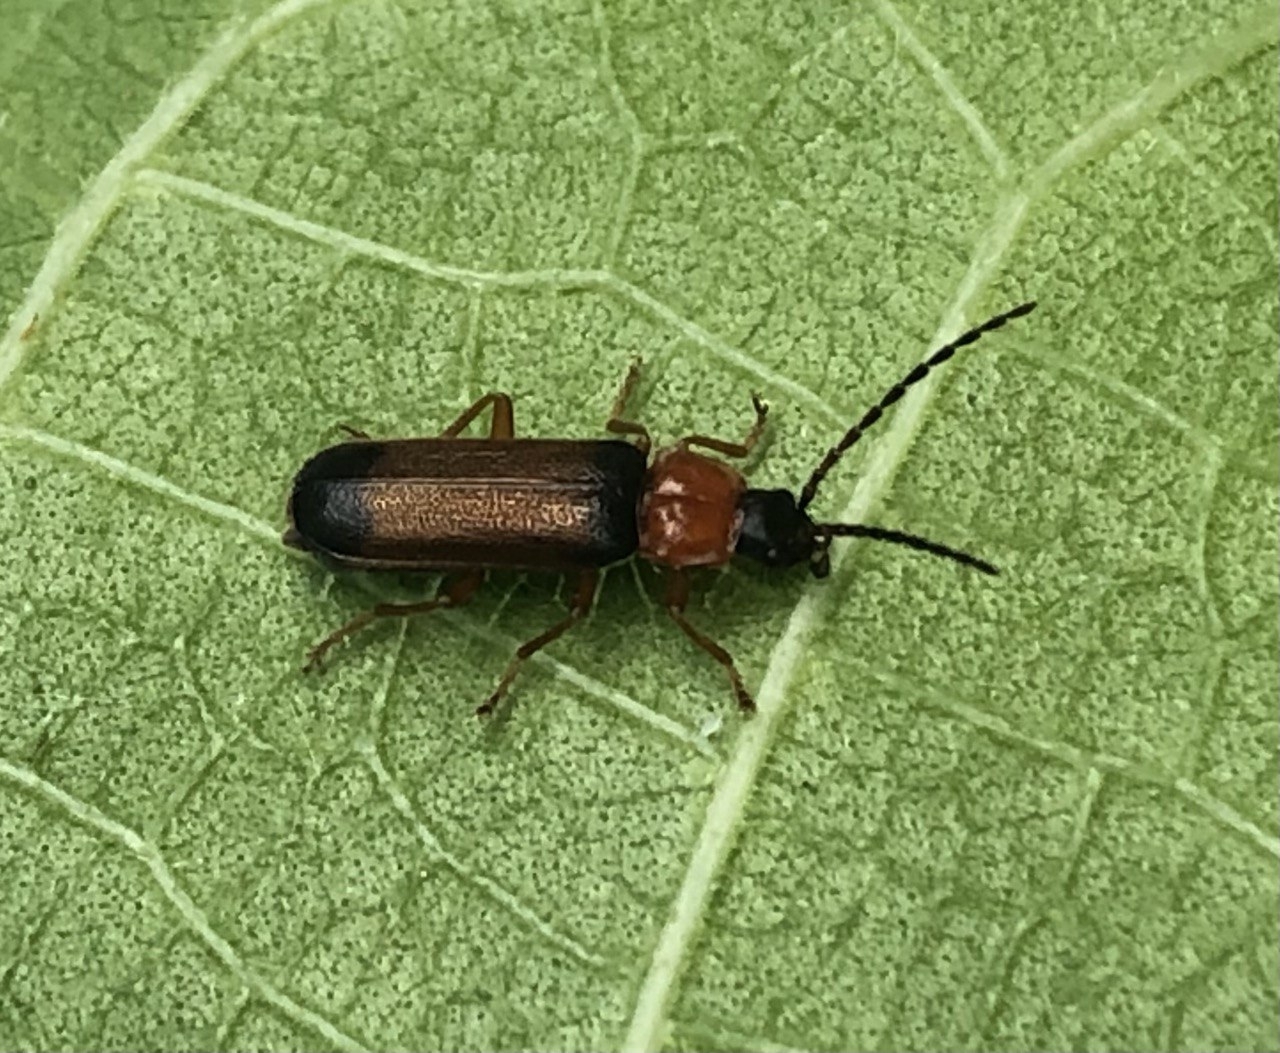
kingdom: Animalia
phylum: Arthropoda
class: Insecta
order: Coleoptera
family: Cantharidae
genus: Cratosilis
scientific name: Cratosilis laeta
